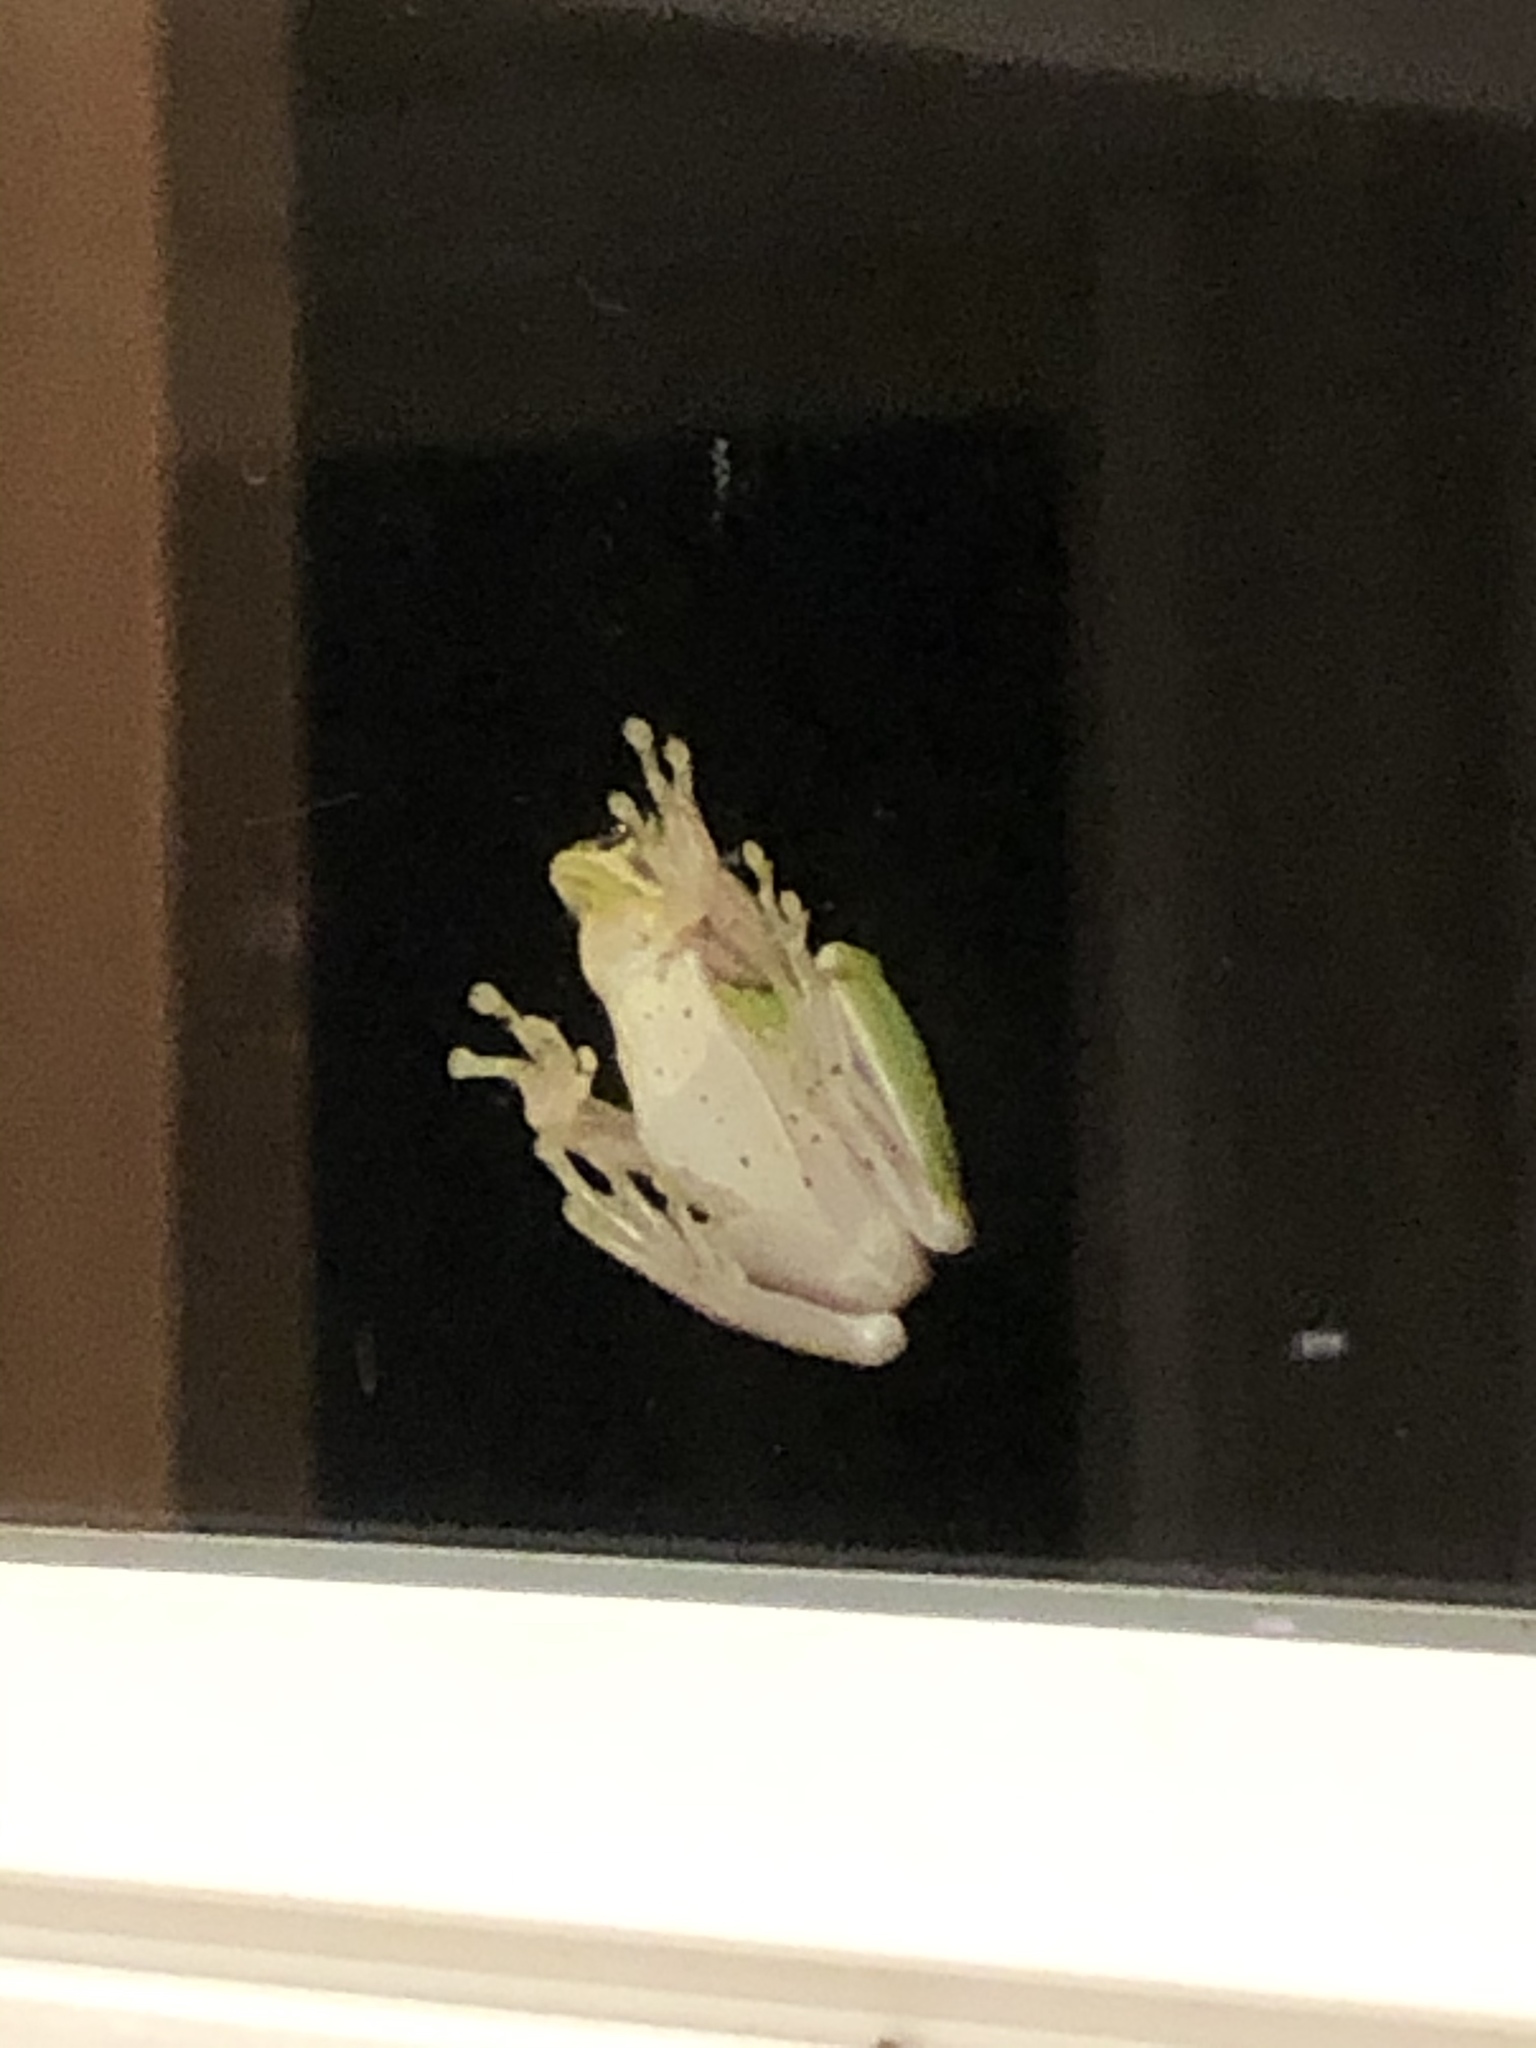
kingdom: Animalia
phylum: Chordata
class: Amphibia
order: Anura
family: Hylidae
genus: Dryophytes
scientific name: Dryophytes squirellus
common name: Squirrel treefrog
